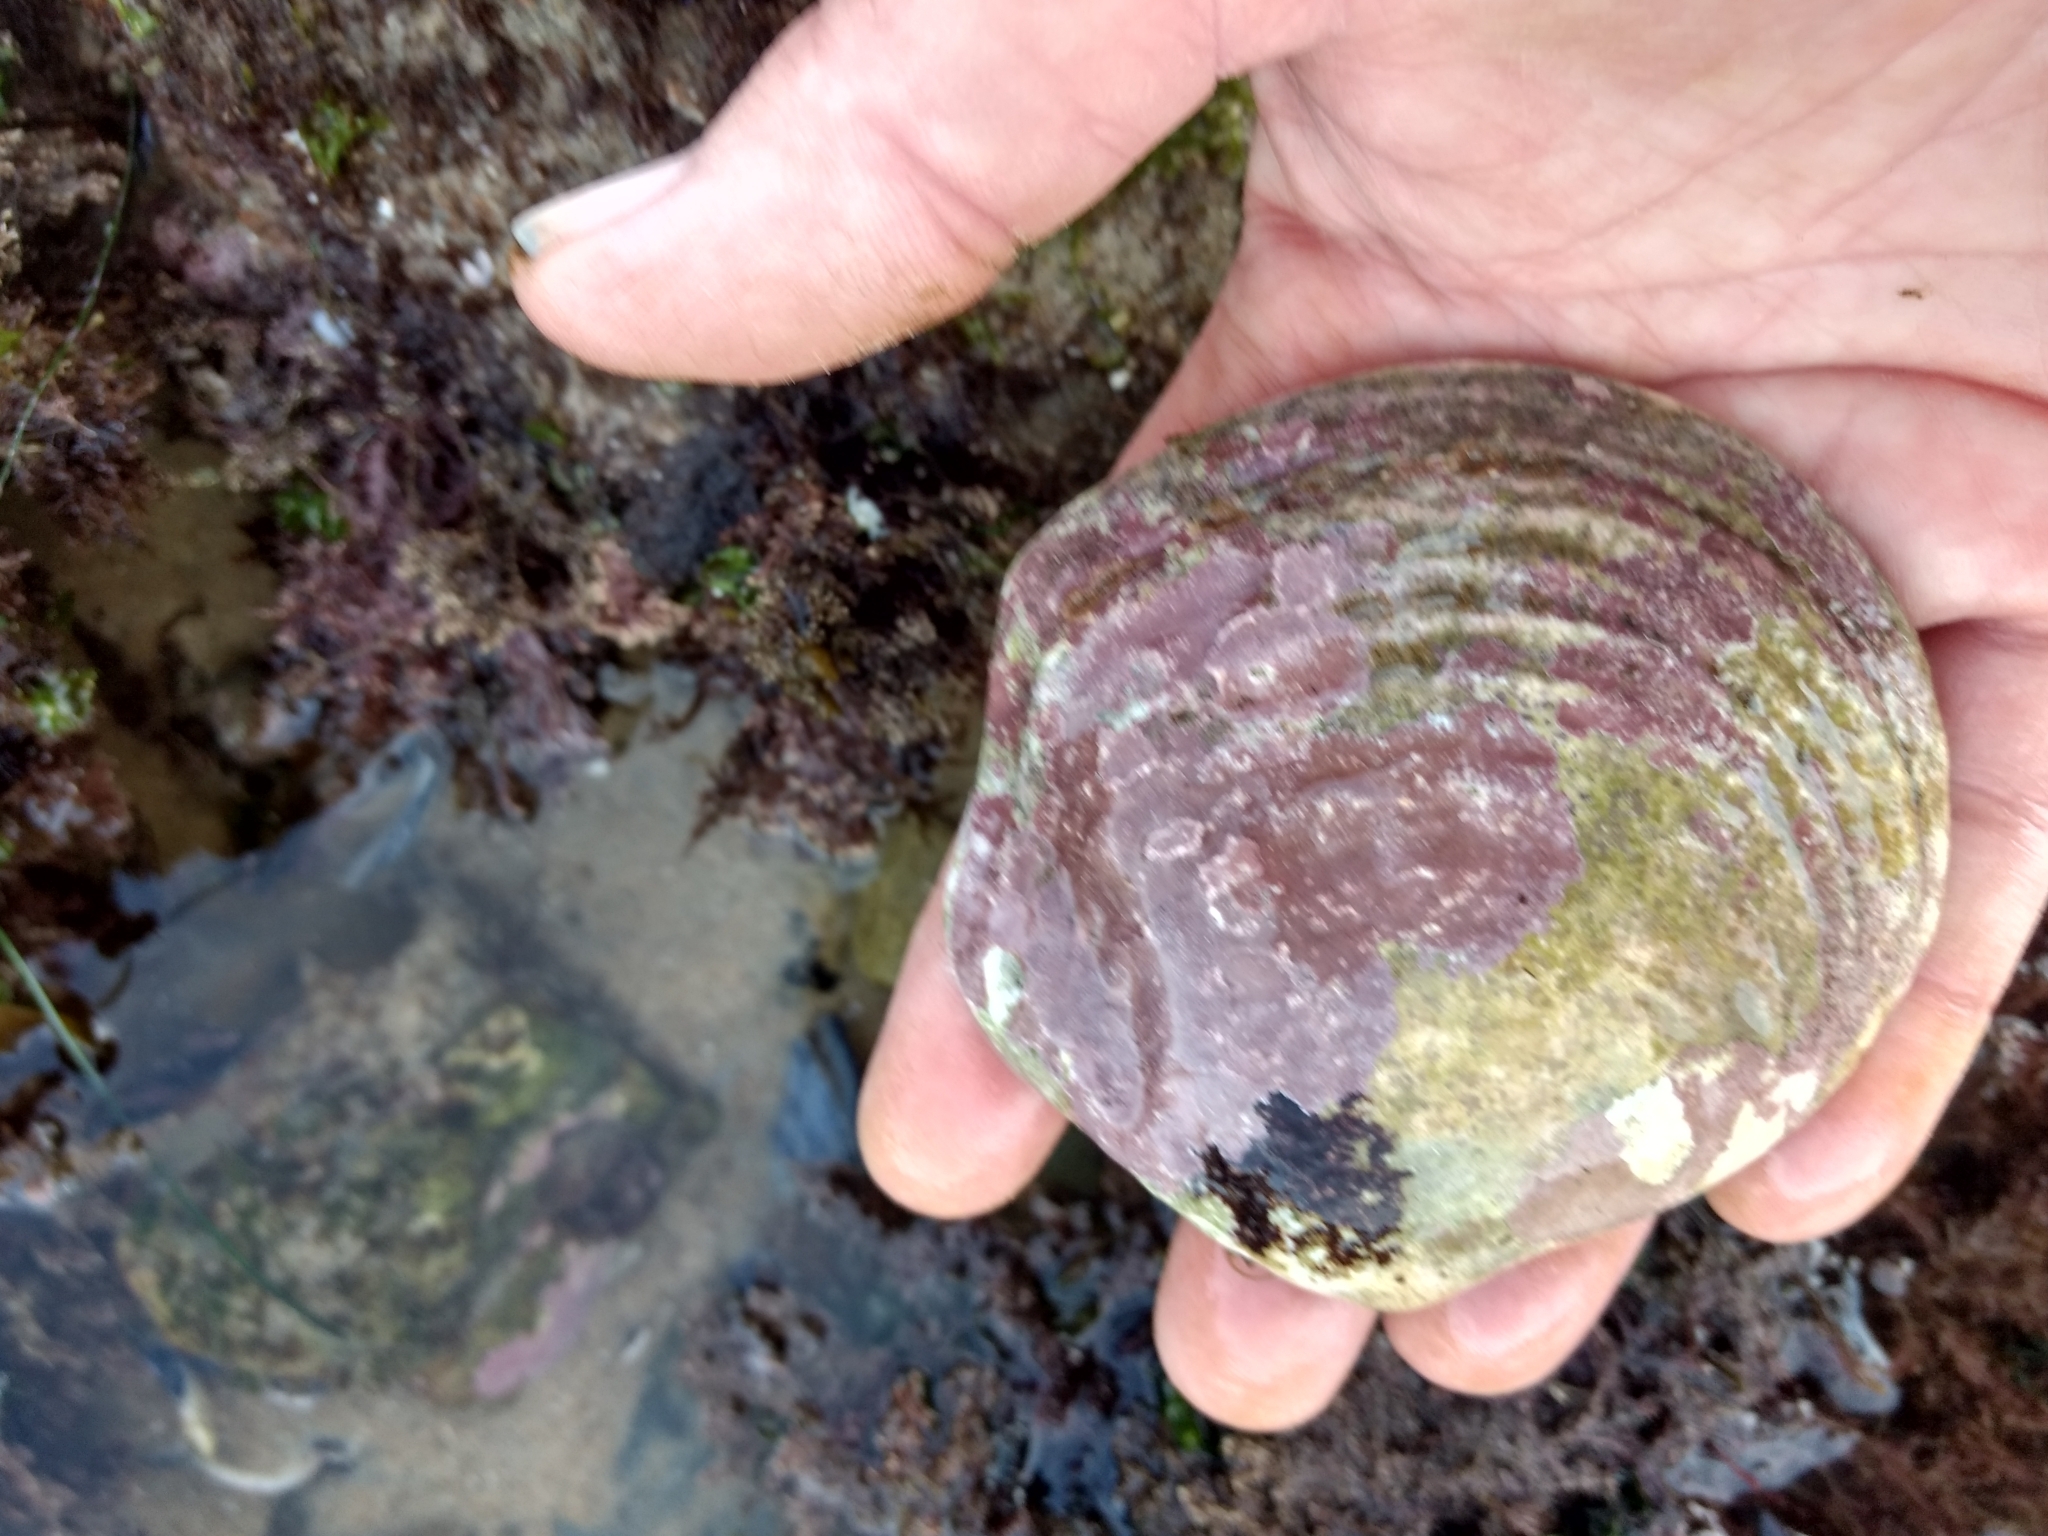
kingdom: Animalia
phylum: Mollusca
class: Bivalvia
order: Cardiida
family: Semelidae
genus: Semele
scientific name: Semele decisa
